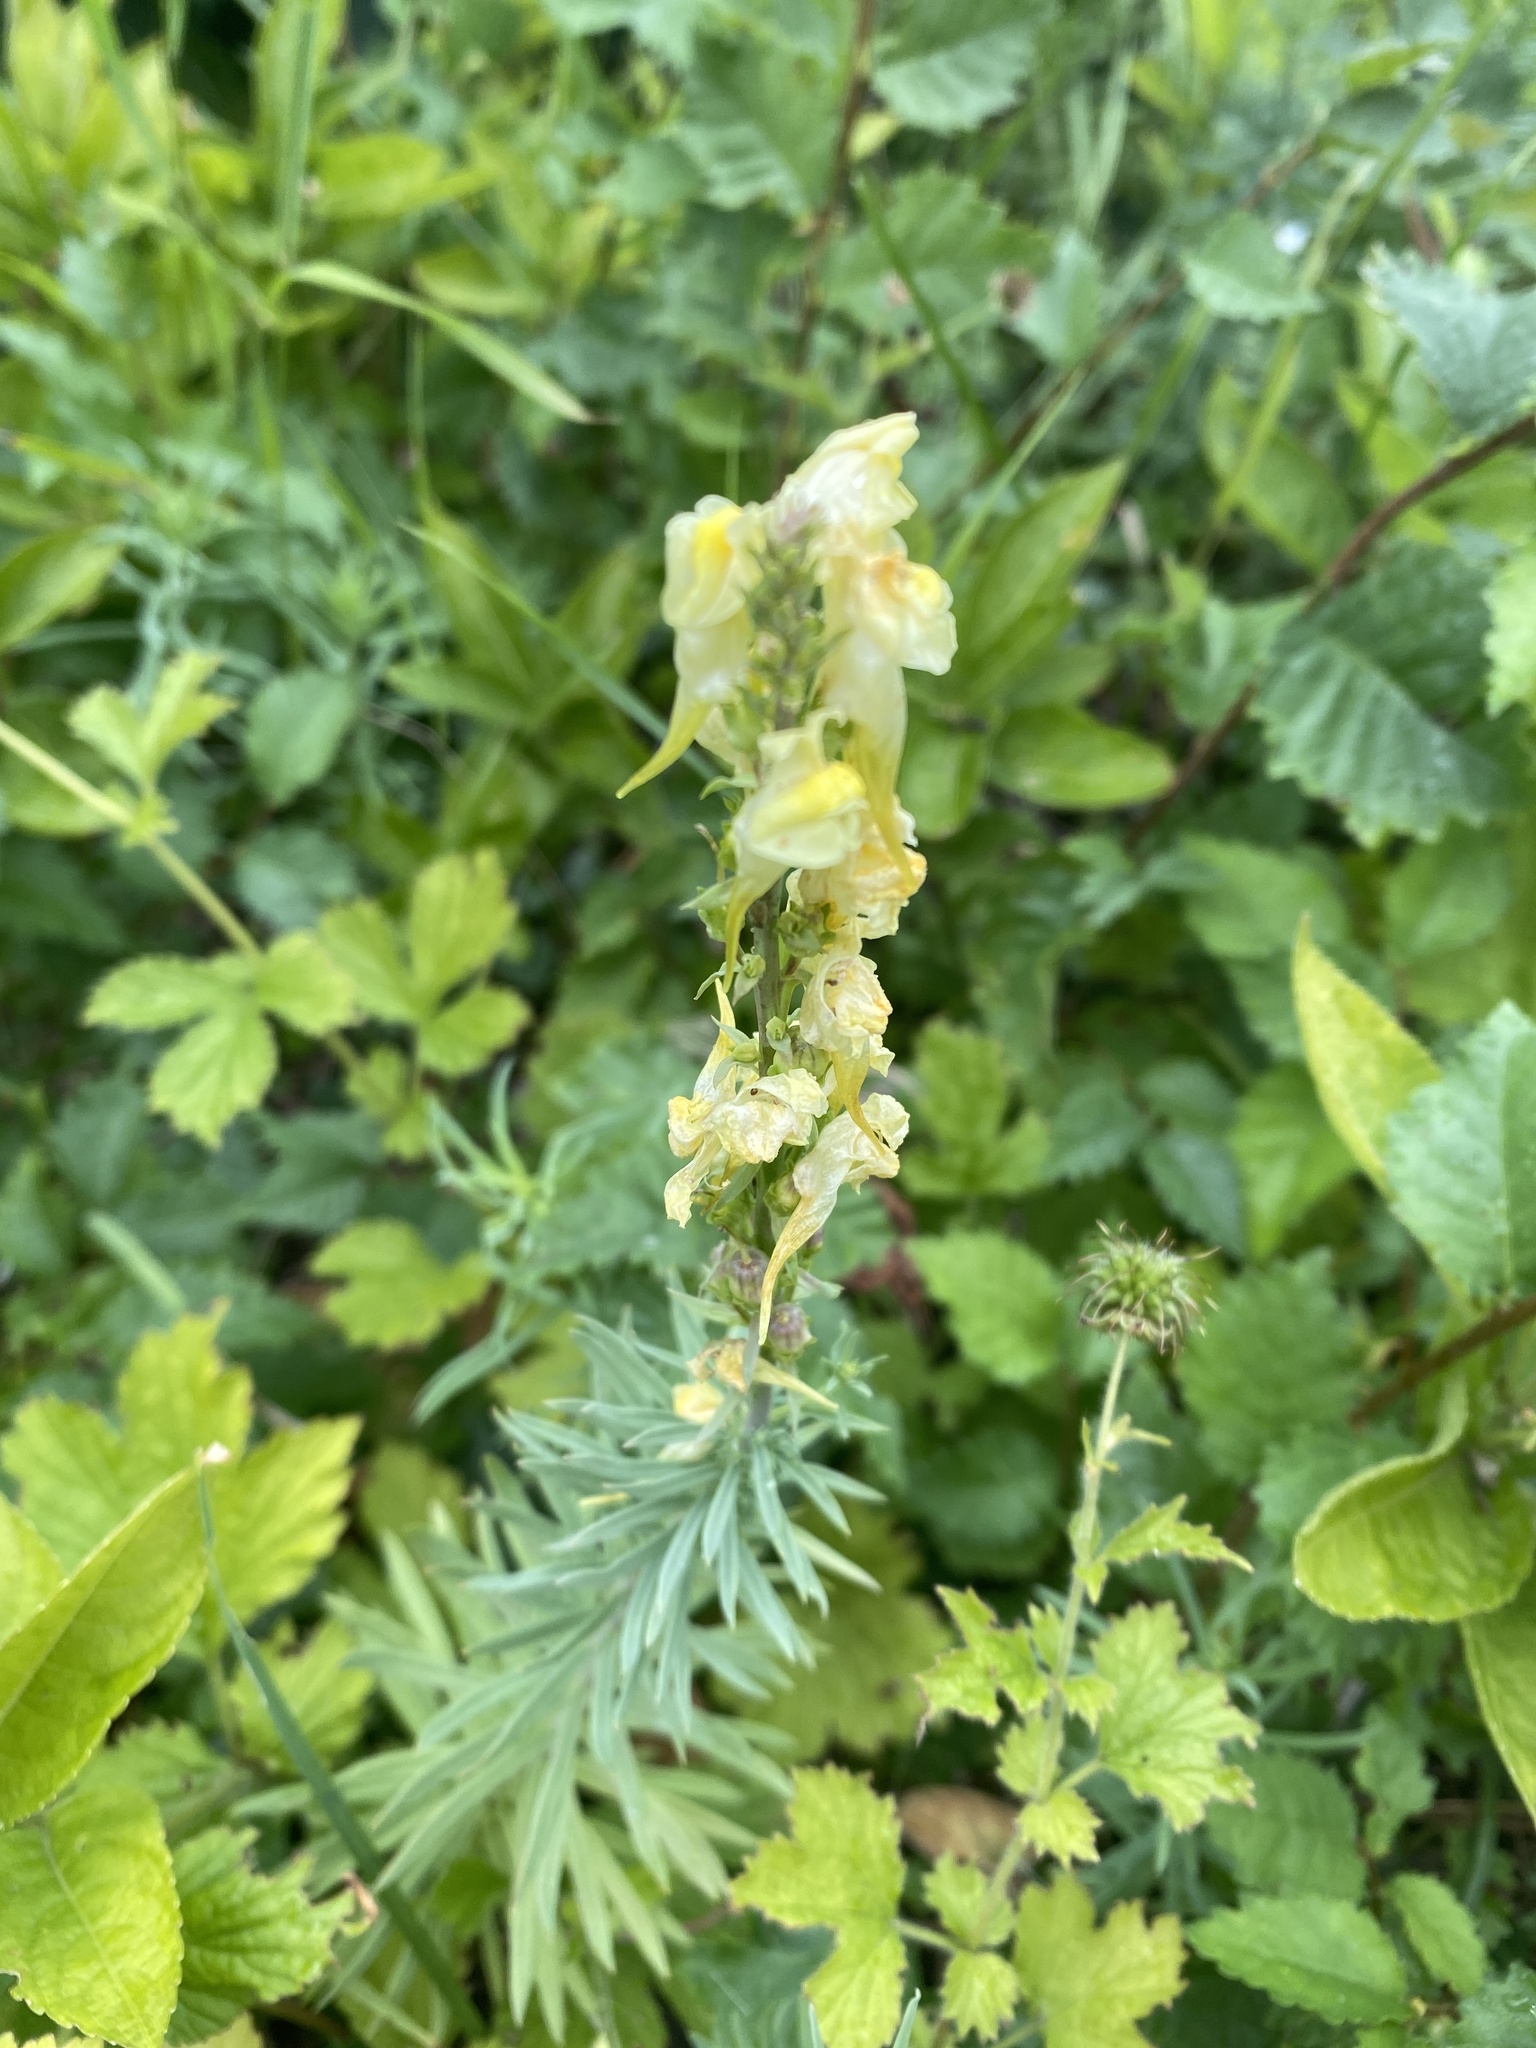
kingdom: Plantae
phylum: Tracheophyta
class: Magnoliopsida
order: Lamiales
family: Plantaginaceae
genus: Linaria
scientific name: Linaria vulgaris
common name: Butter and eggs
